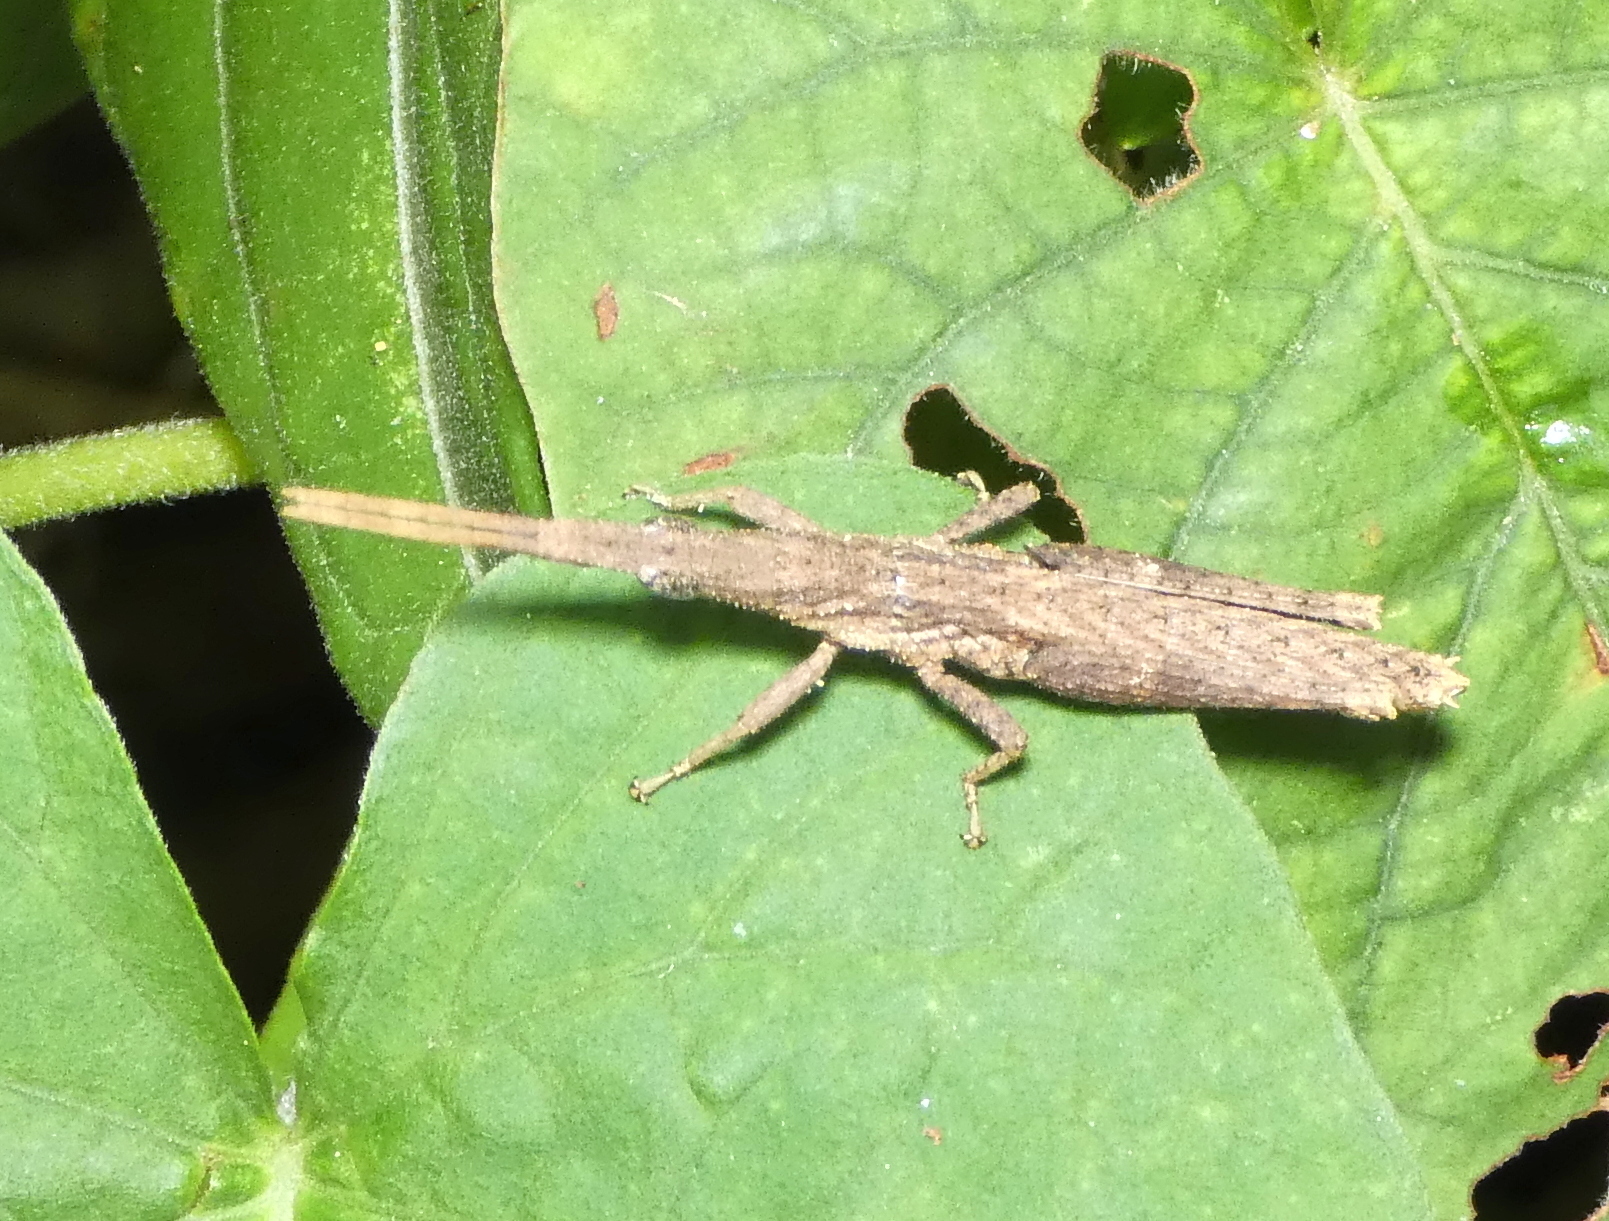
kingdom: Animalia
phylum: Arthropoda
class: Insecta
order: Orthoptera
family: Pyrgomorphidae
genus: Algete
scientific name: Algete brunneri
